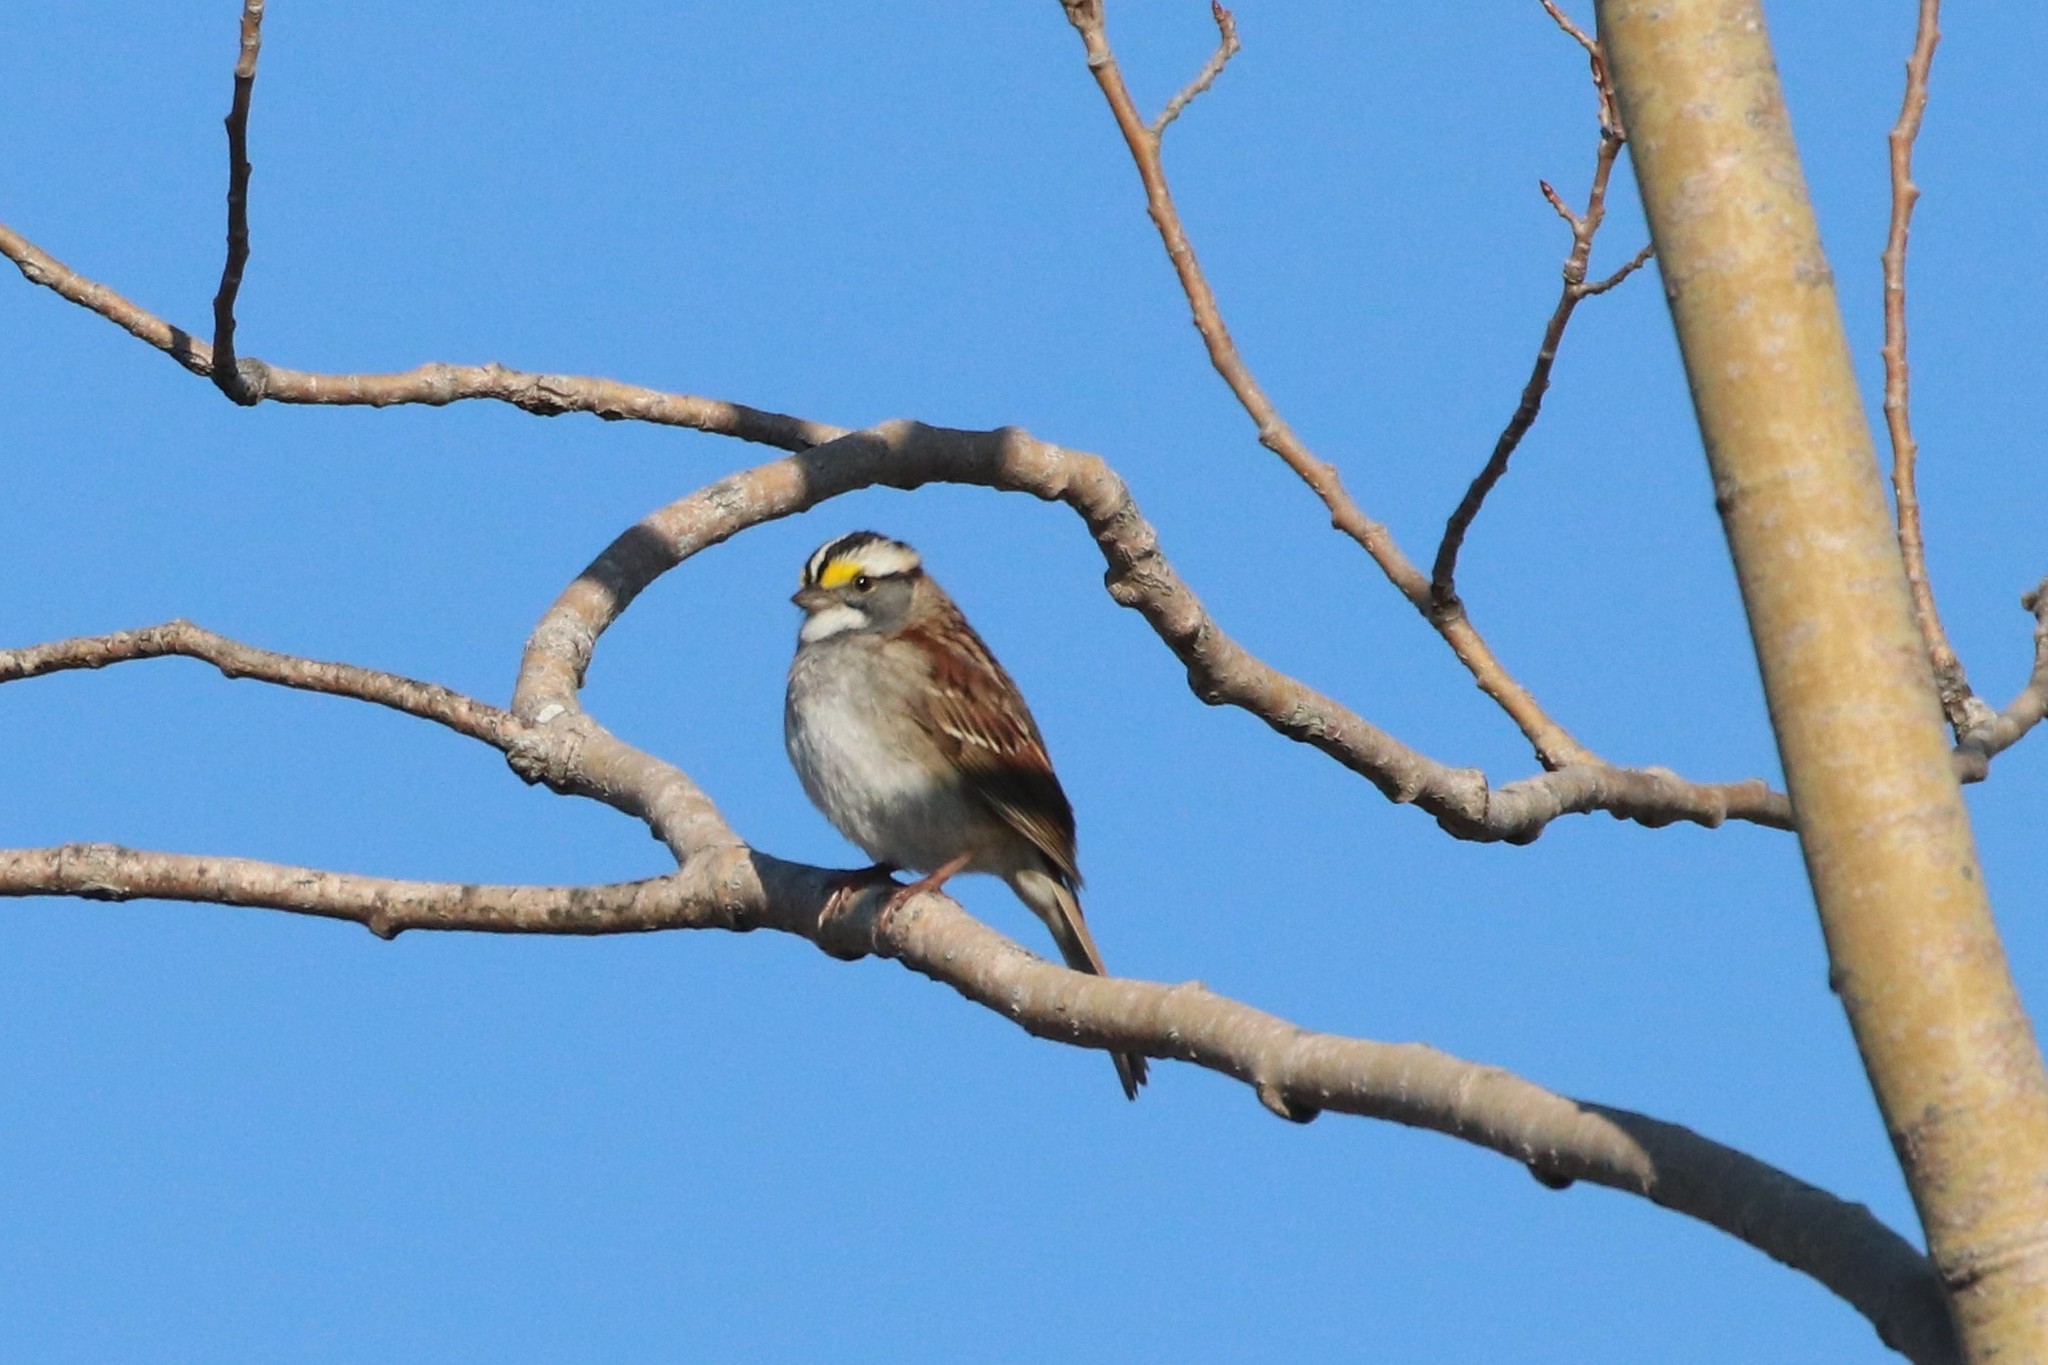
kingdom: Animalia
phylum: Chordata
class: Aves
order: Passeriformes
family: Passerellidae
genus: Zonotrichia
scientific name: Zonotrichia albicollis
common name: White-throated sparrow
